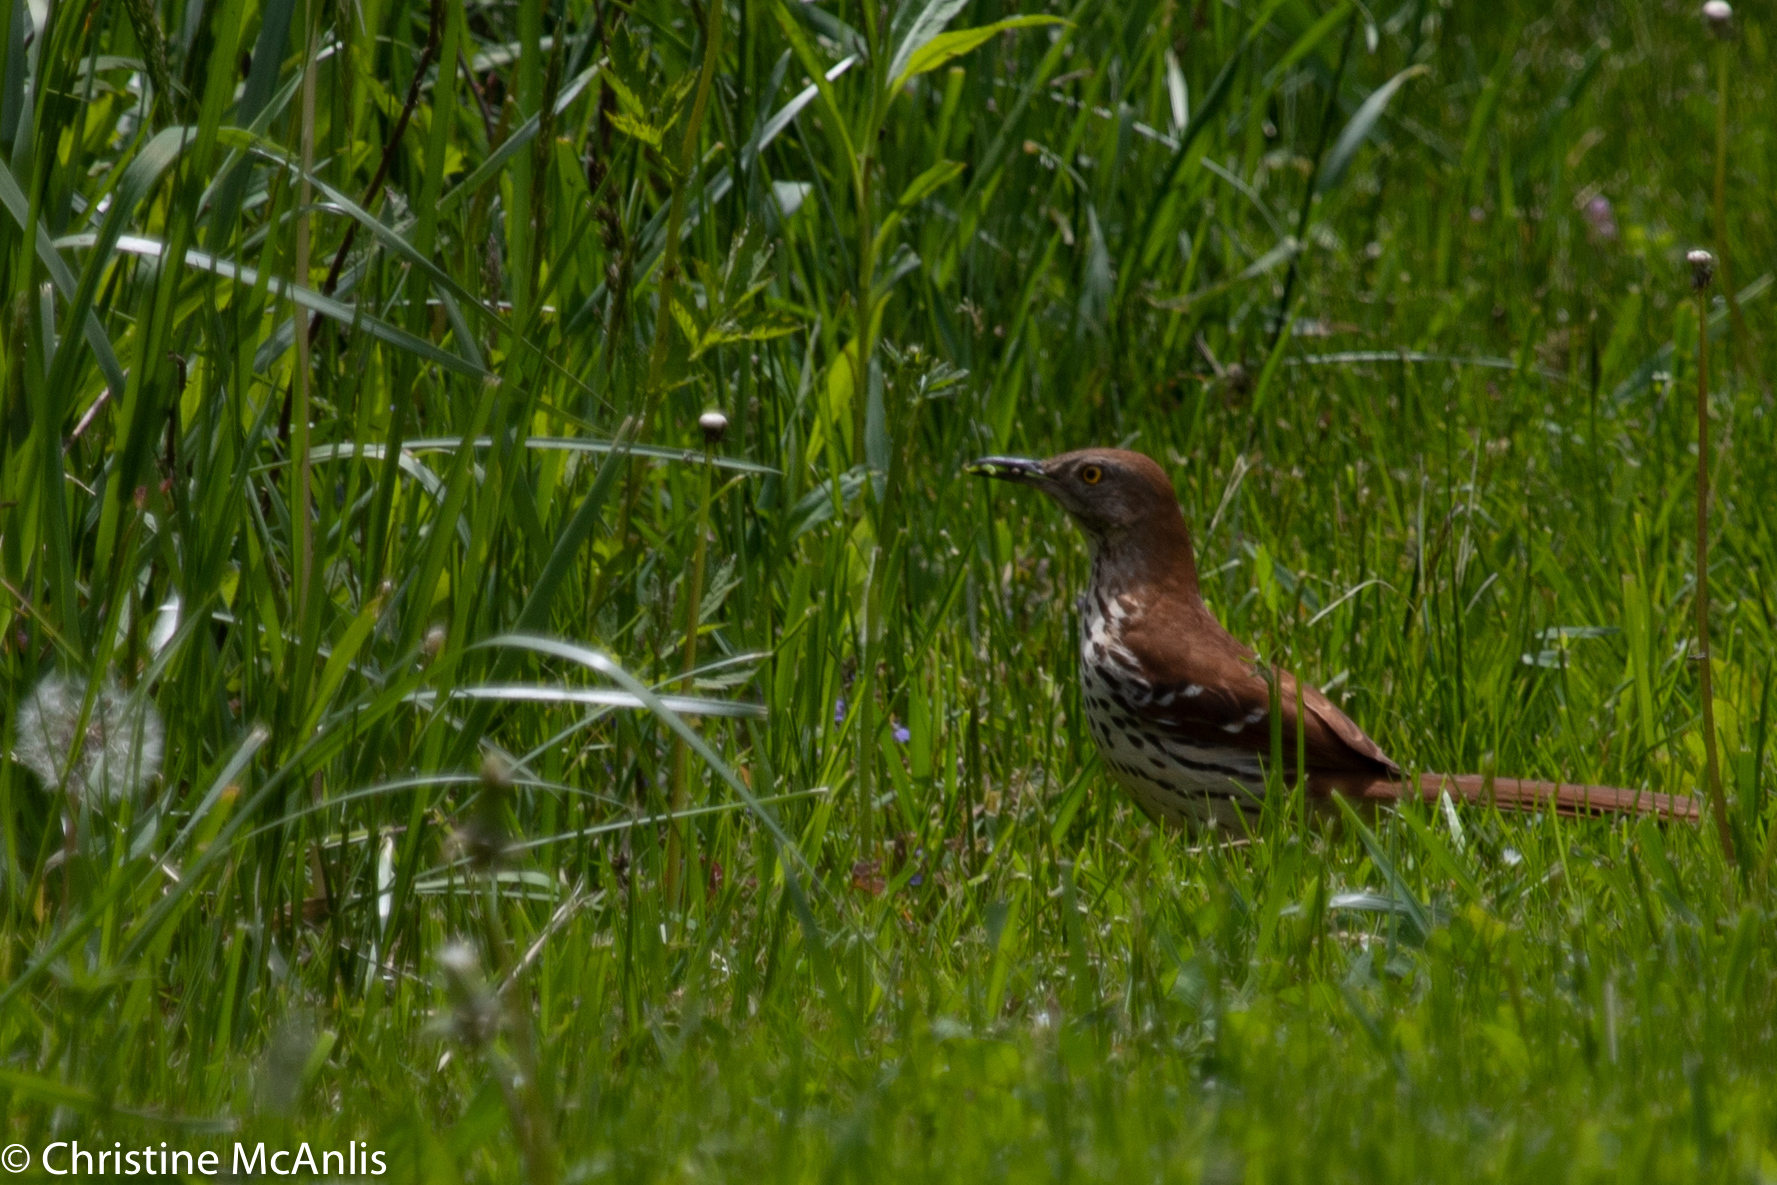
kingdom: Animalia
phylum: Chordata
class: Aves
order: Passeriformes
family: Mimidae
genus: Toxostoma
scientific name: Toxostoma rufum
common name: Brown thrasher
